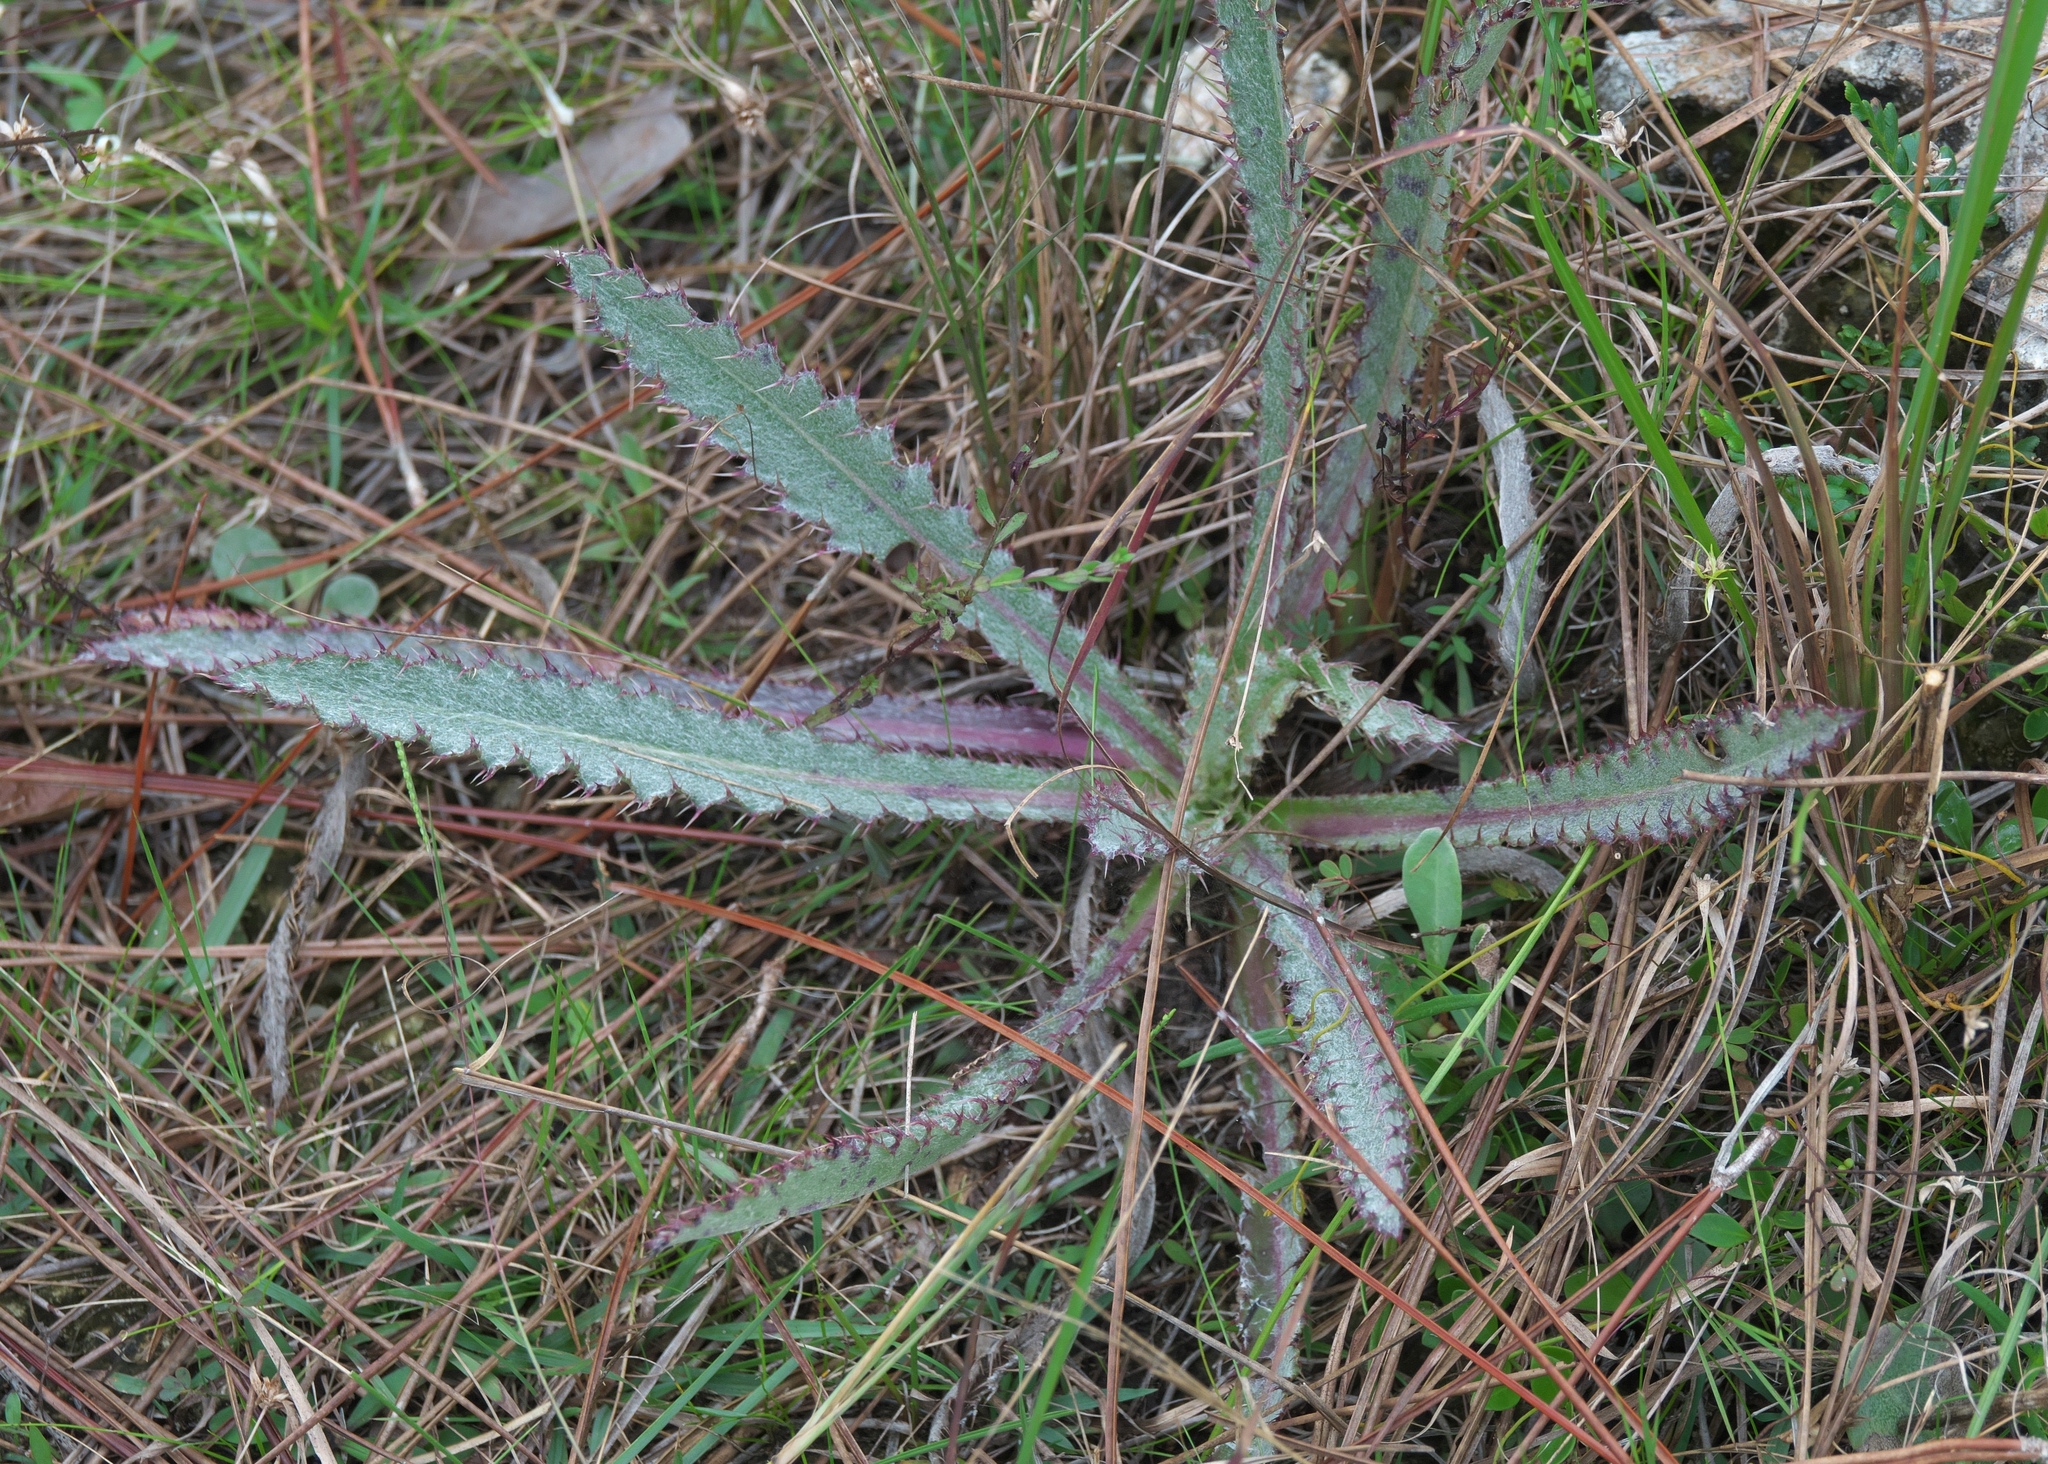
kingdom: Plantae
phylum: Tracheophyta
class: Magnoliopsida
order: Asterales
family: Asteraceae
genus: Cirsium
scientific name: Cirsium horridulum
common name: Bristly thistle
